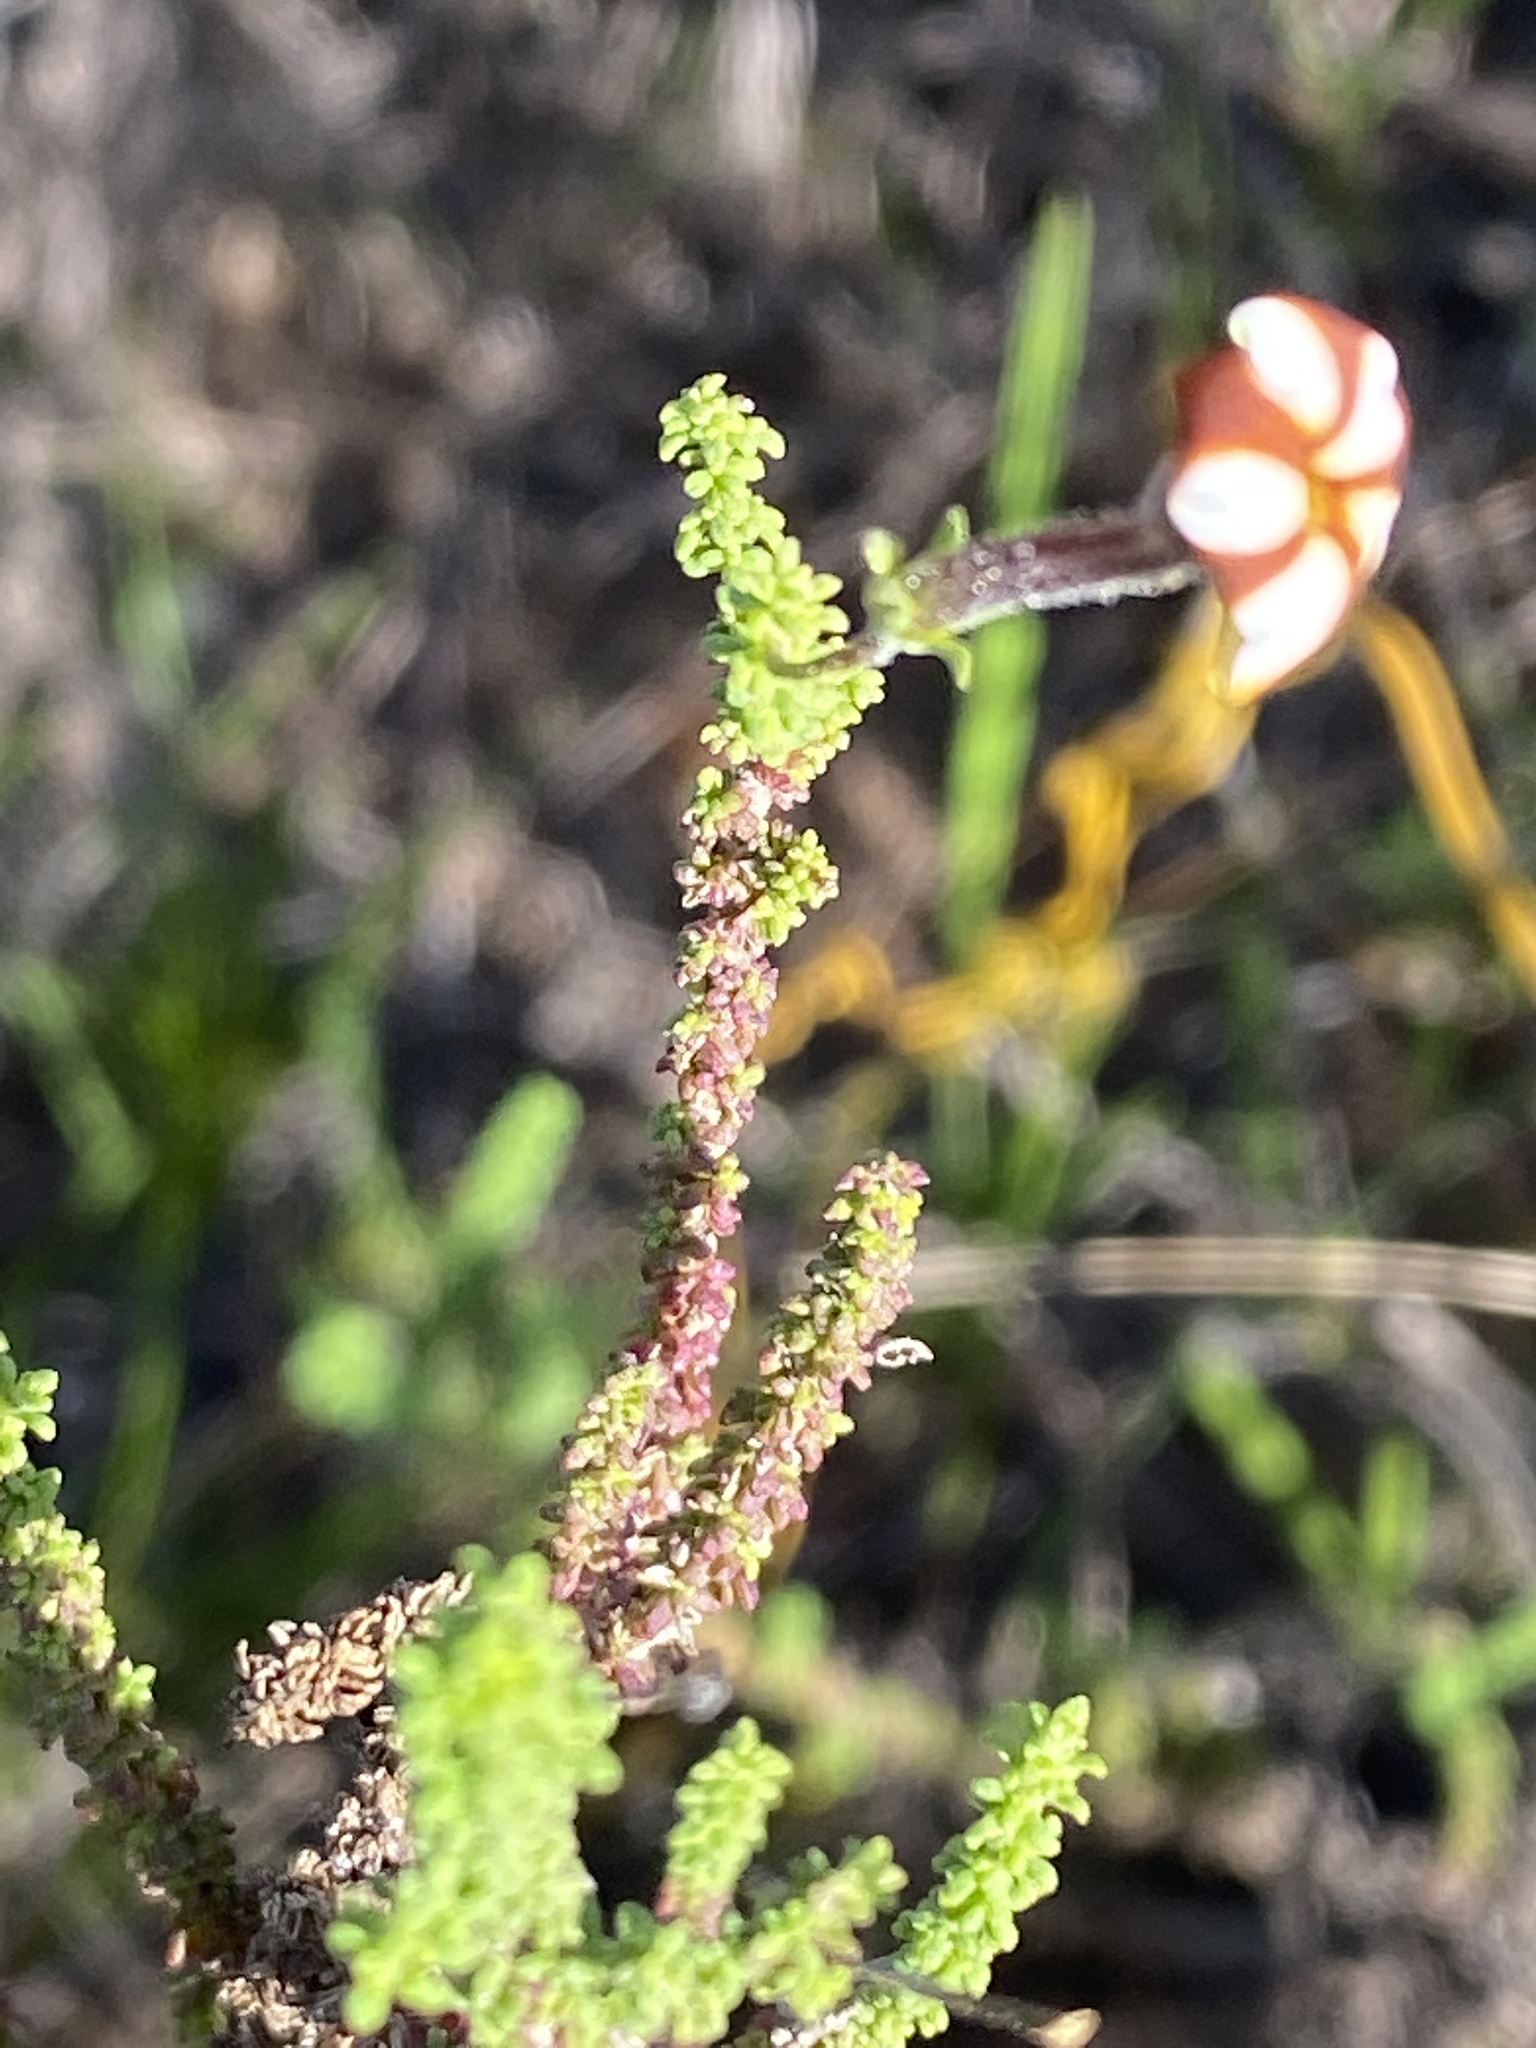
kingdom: Plantae
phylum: Tracheophyta
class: Magnoliopsida
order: Lamiales
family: Scrophulariaceae
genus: Jamesbrittenia
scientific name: Jamesbrittenia albomarginata
